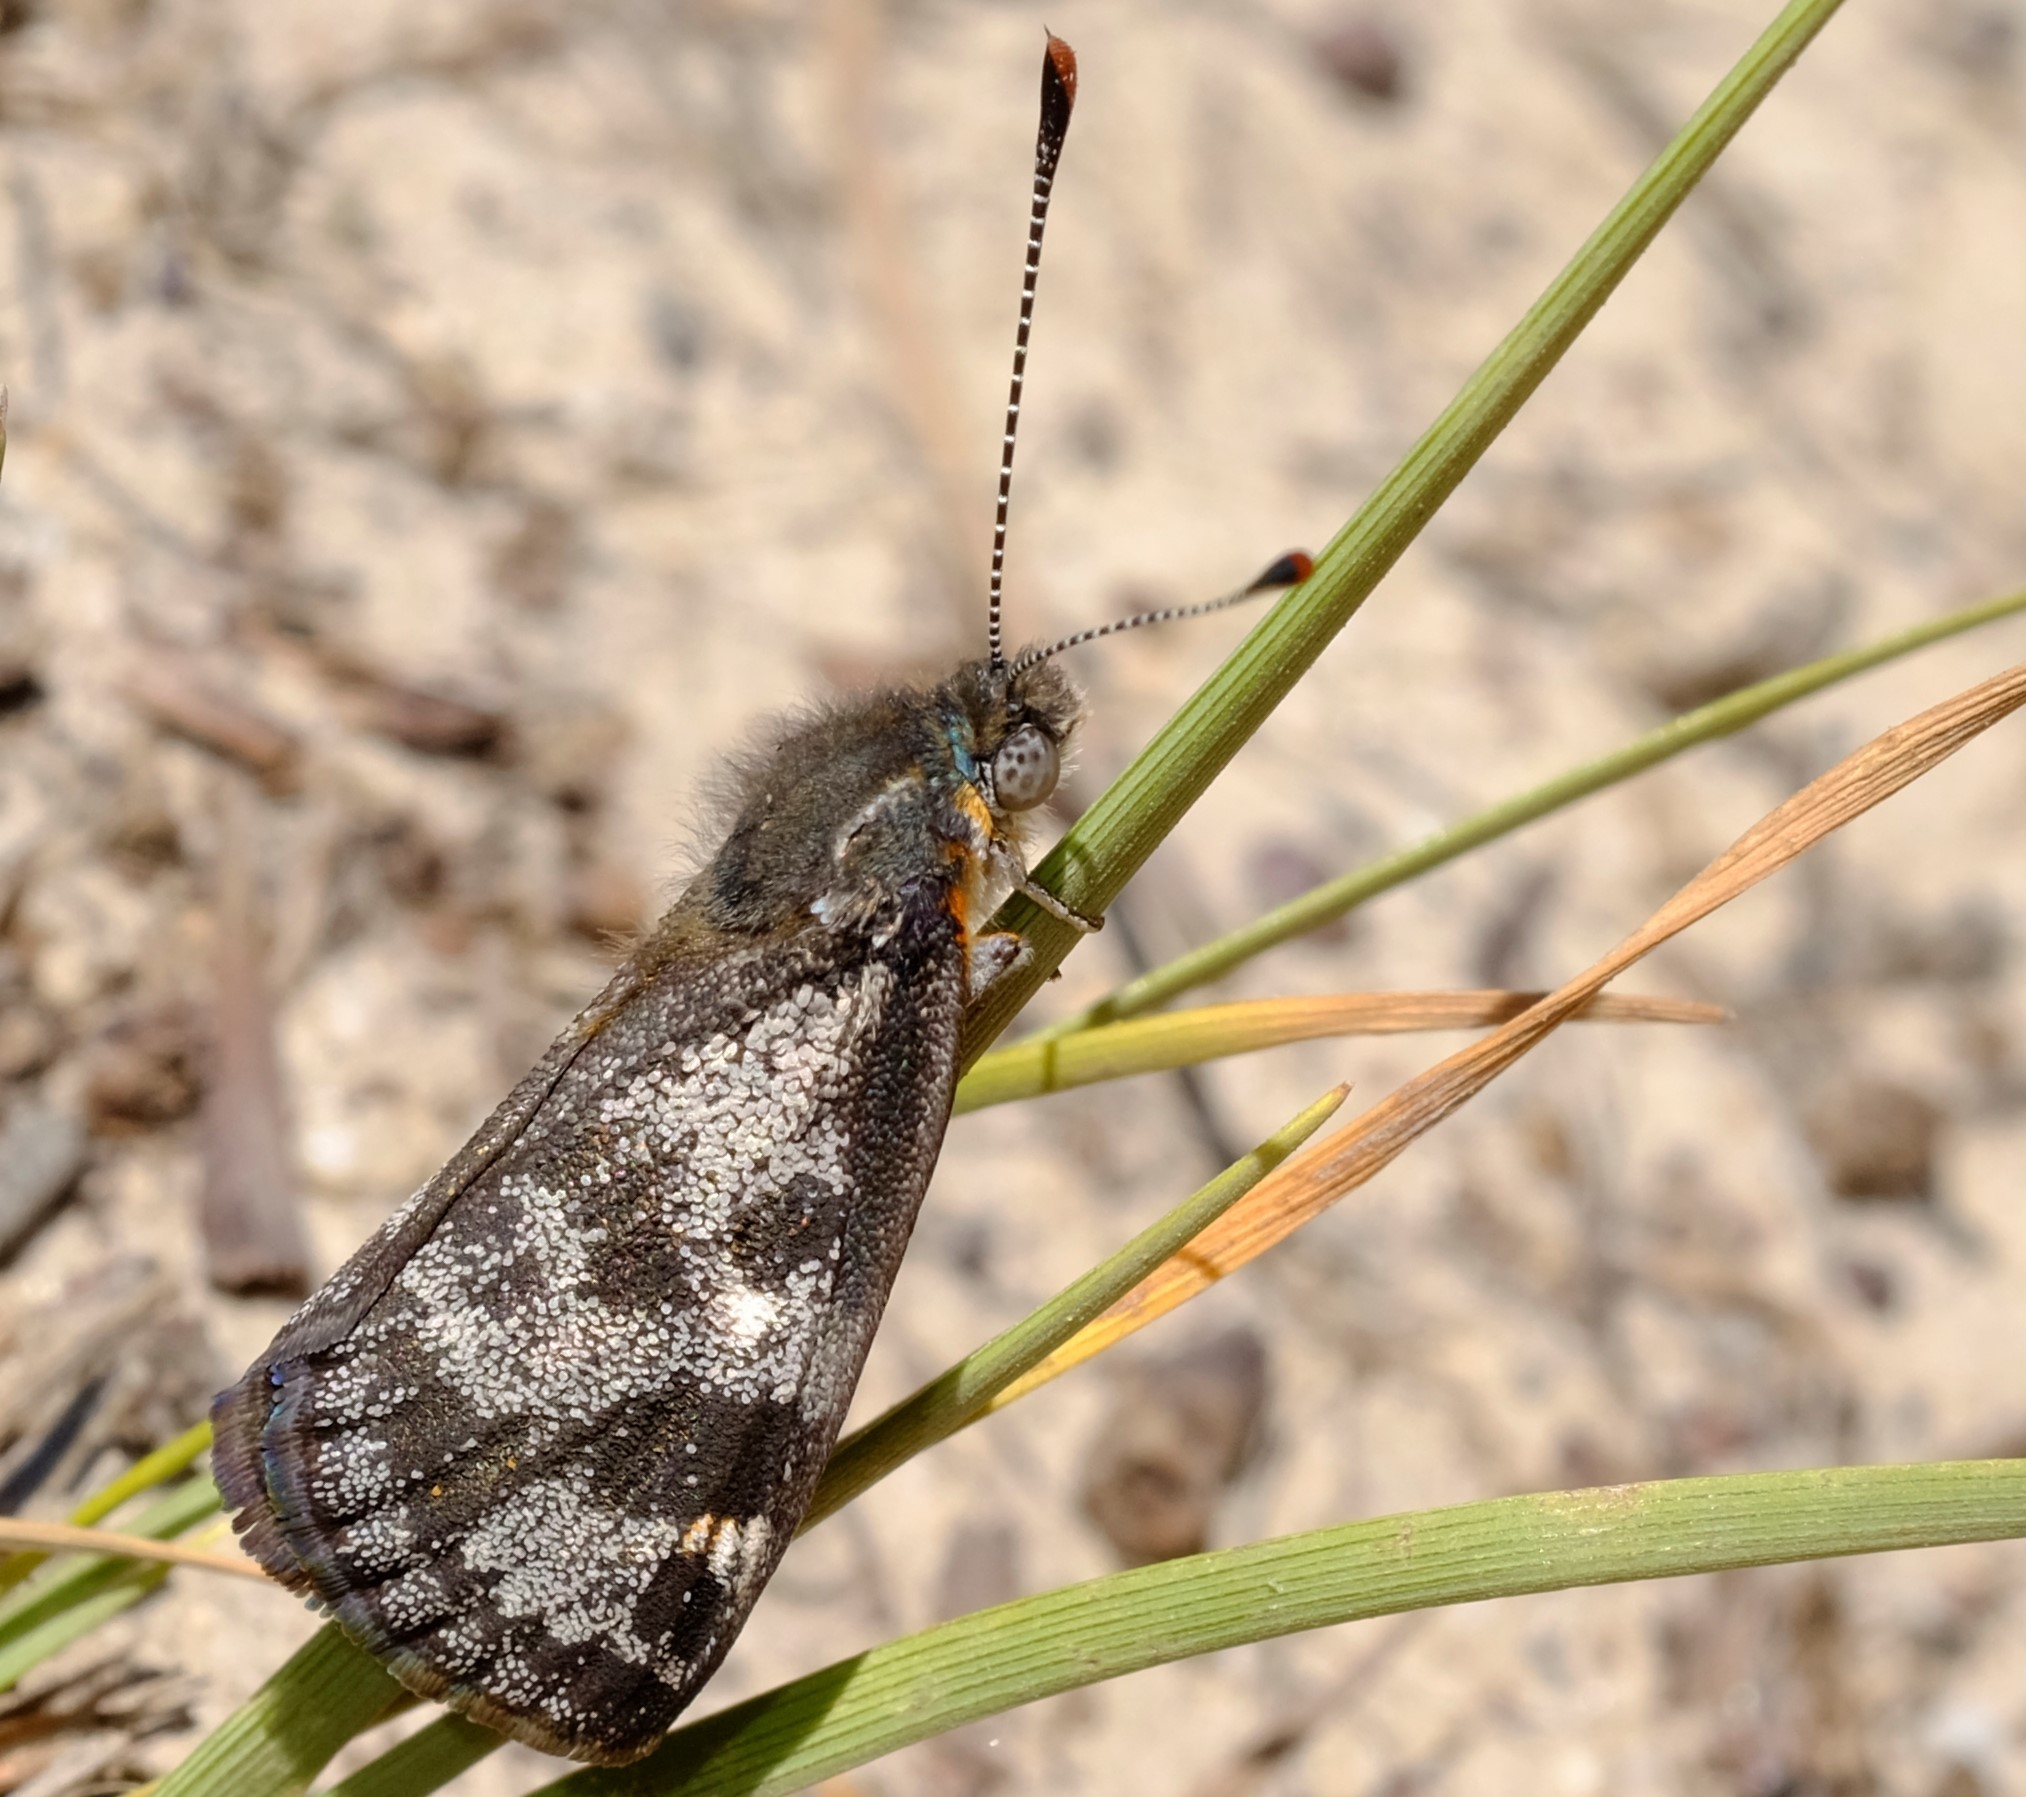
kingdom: Animalia
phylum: Arthropoda
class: Insecta
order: Lepidoptera
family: Castniidae
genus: Synemon
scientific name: Synemon parthenoides
